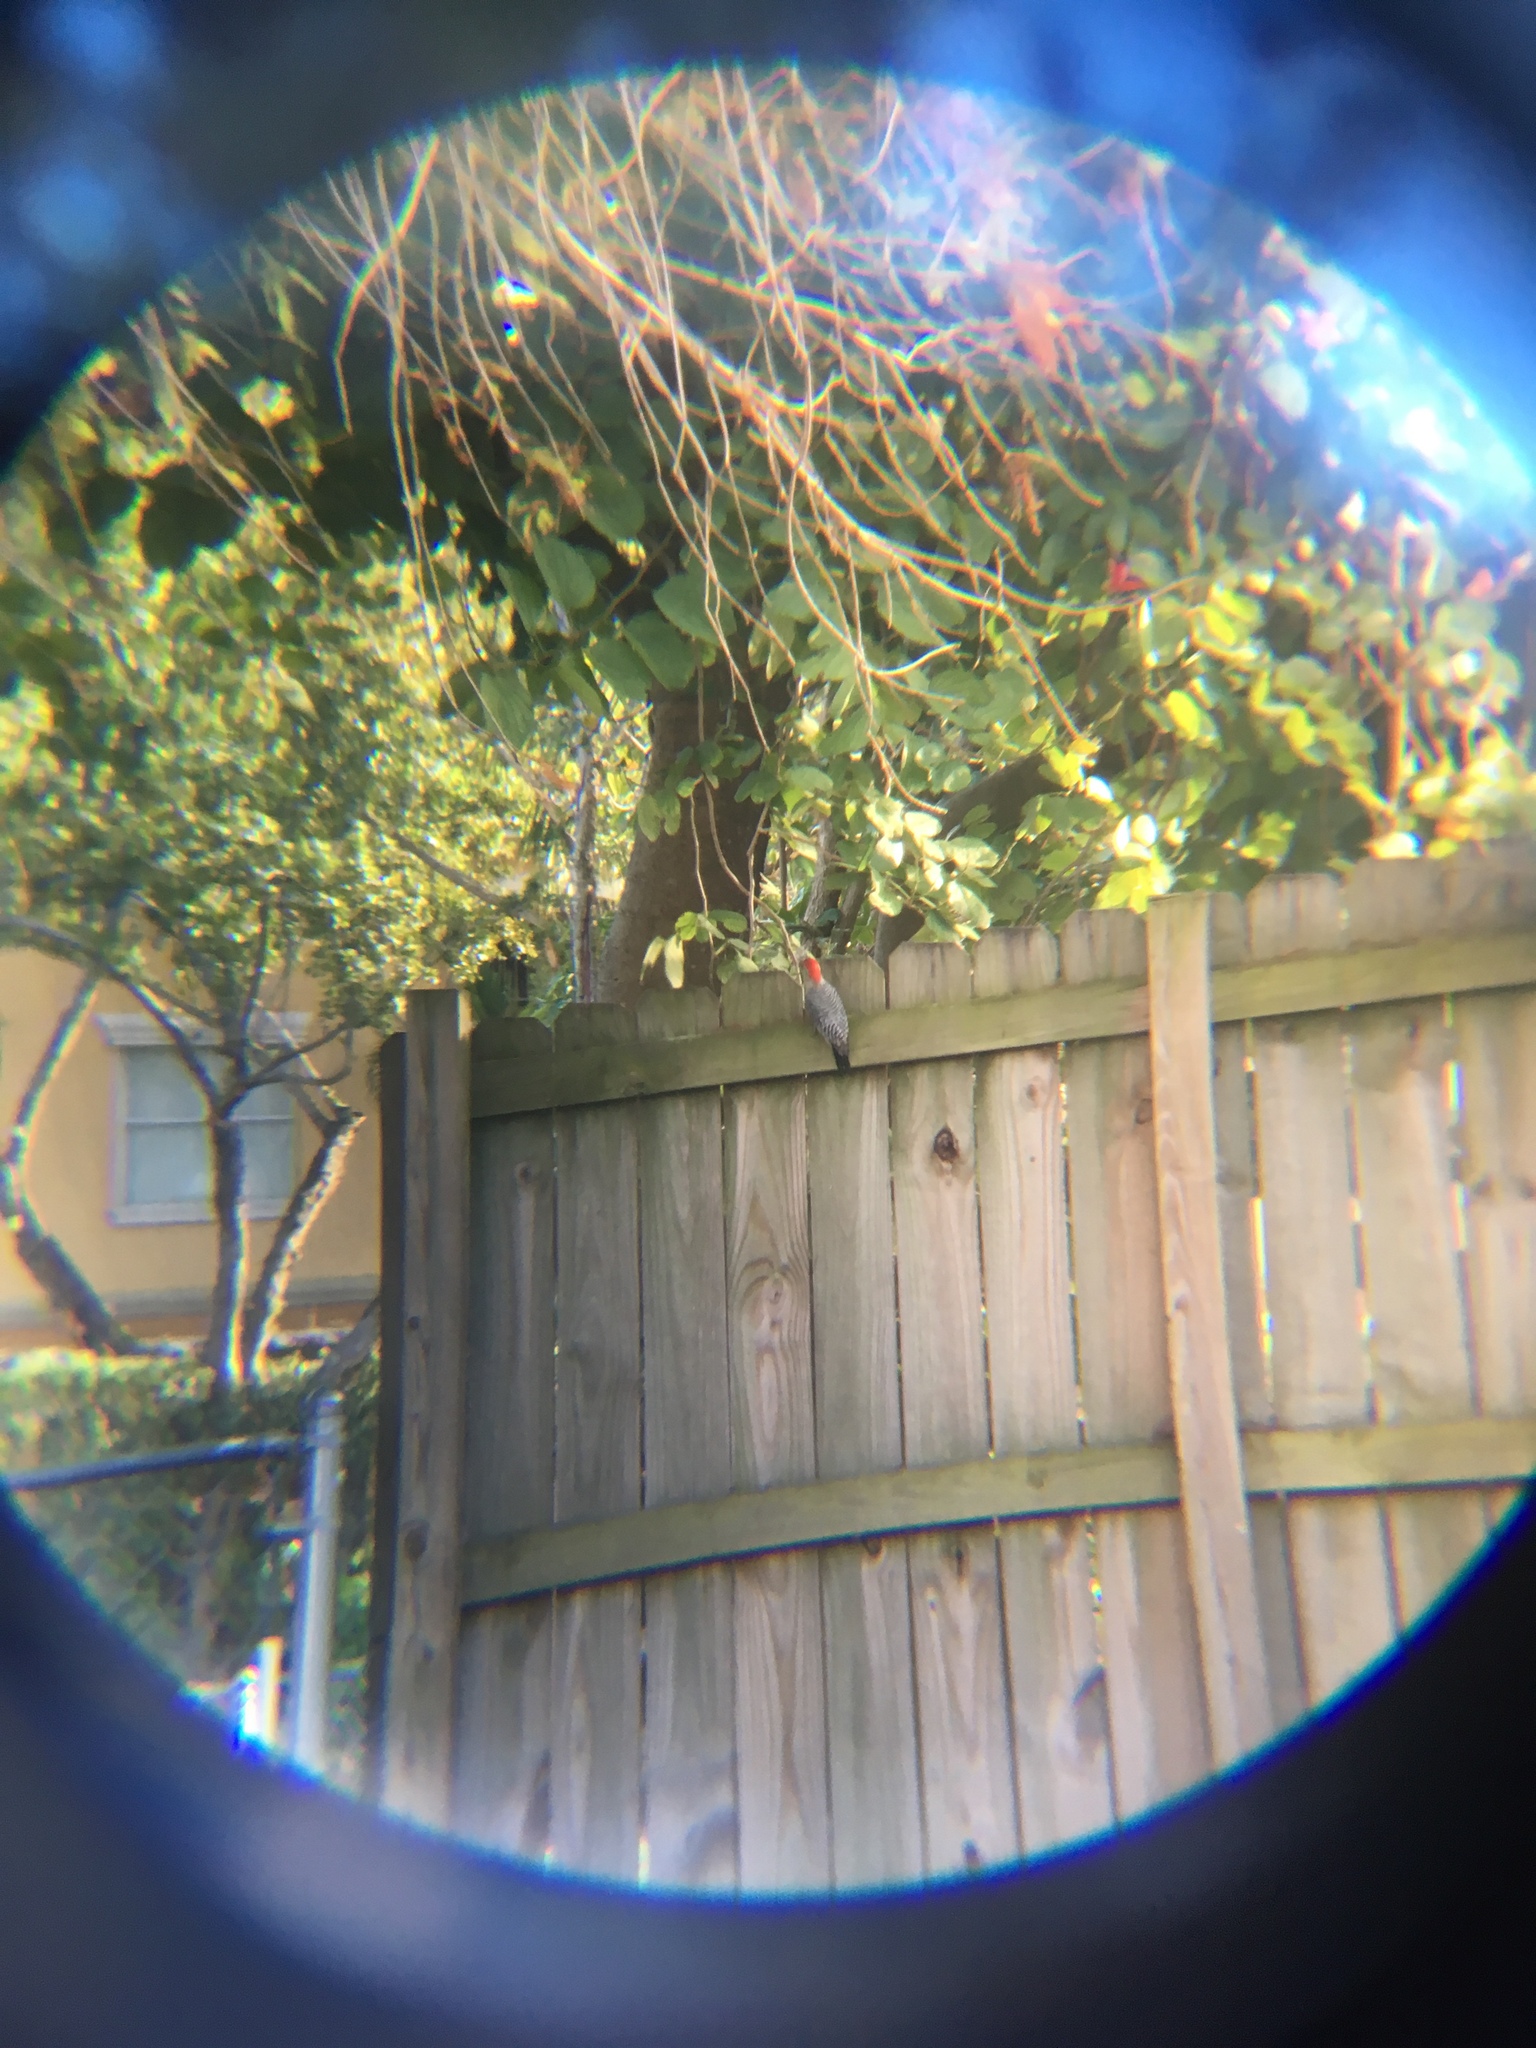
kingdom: Animalia
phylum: Chordata
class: Aves
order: Piciformes
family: Picidae
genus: Melanerpes
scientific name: Melanerpes carolinus
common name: Red-bellied woodpecker
